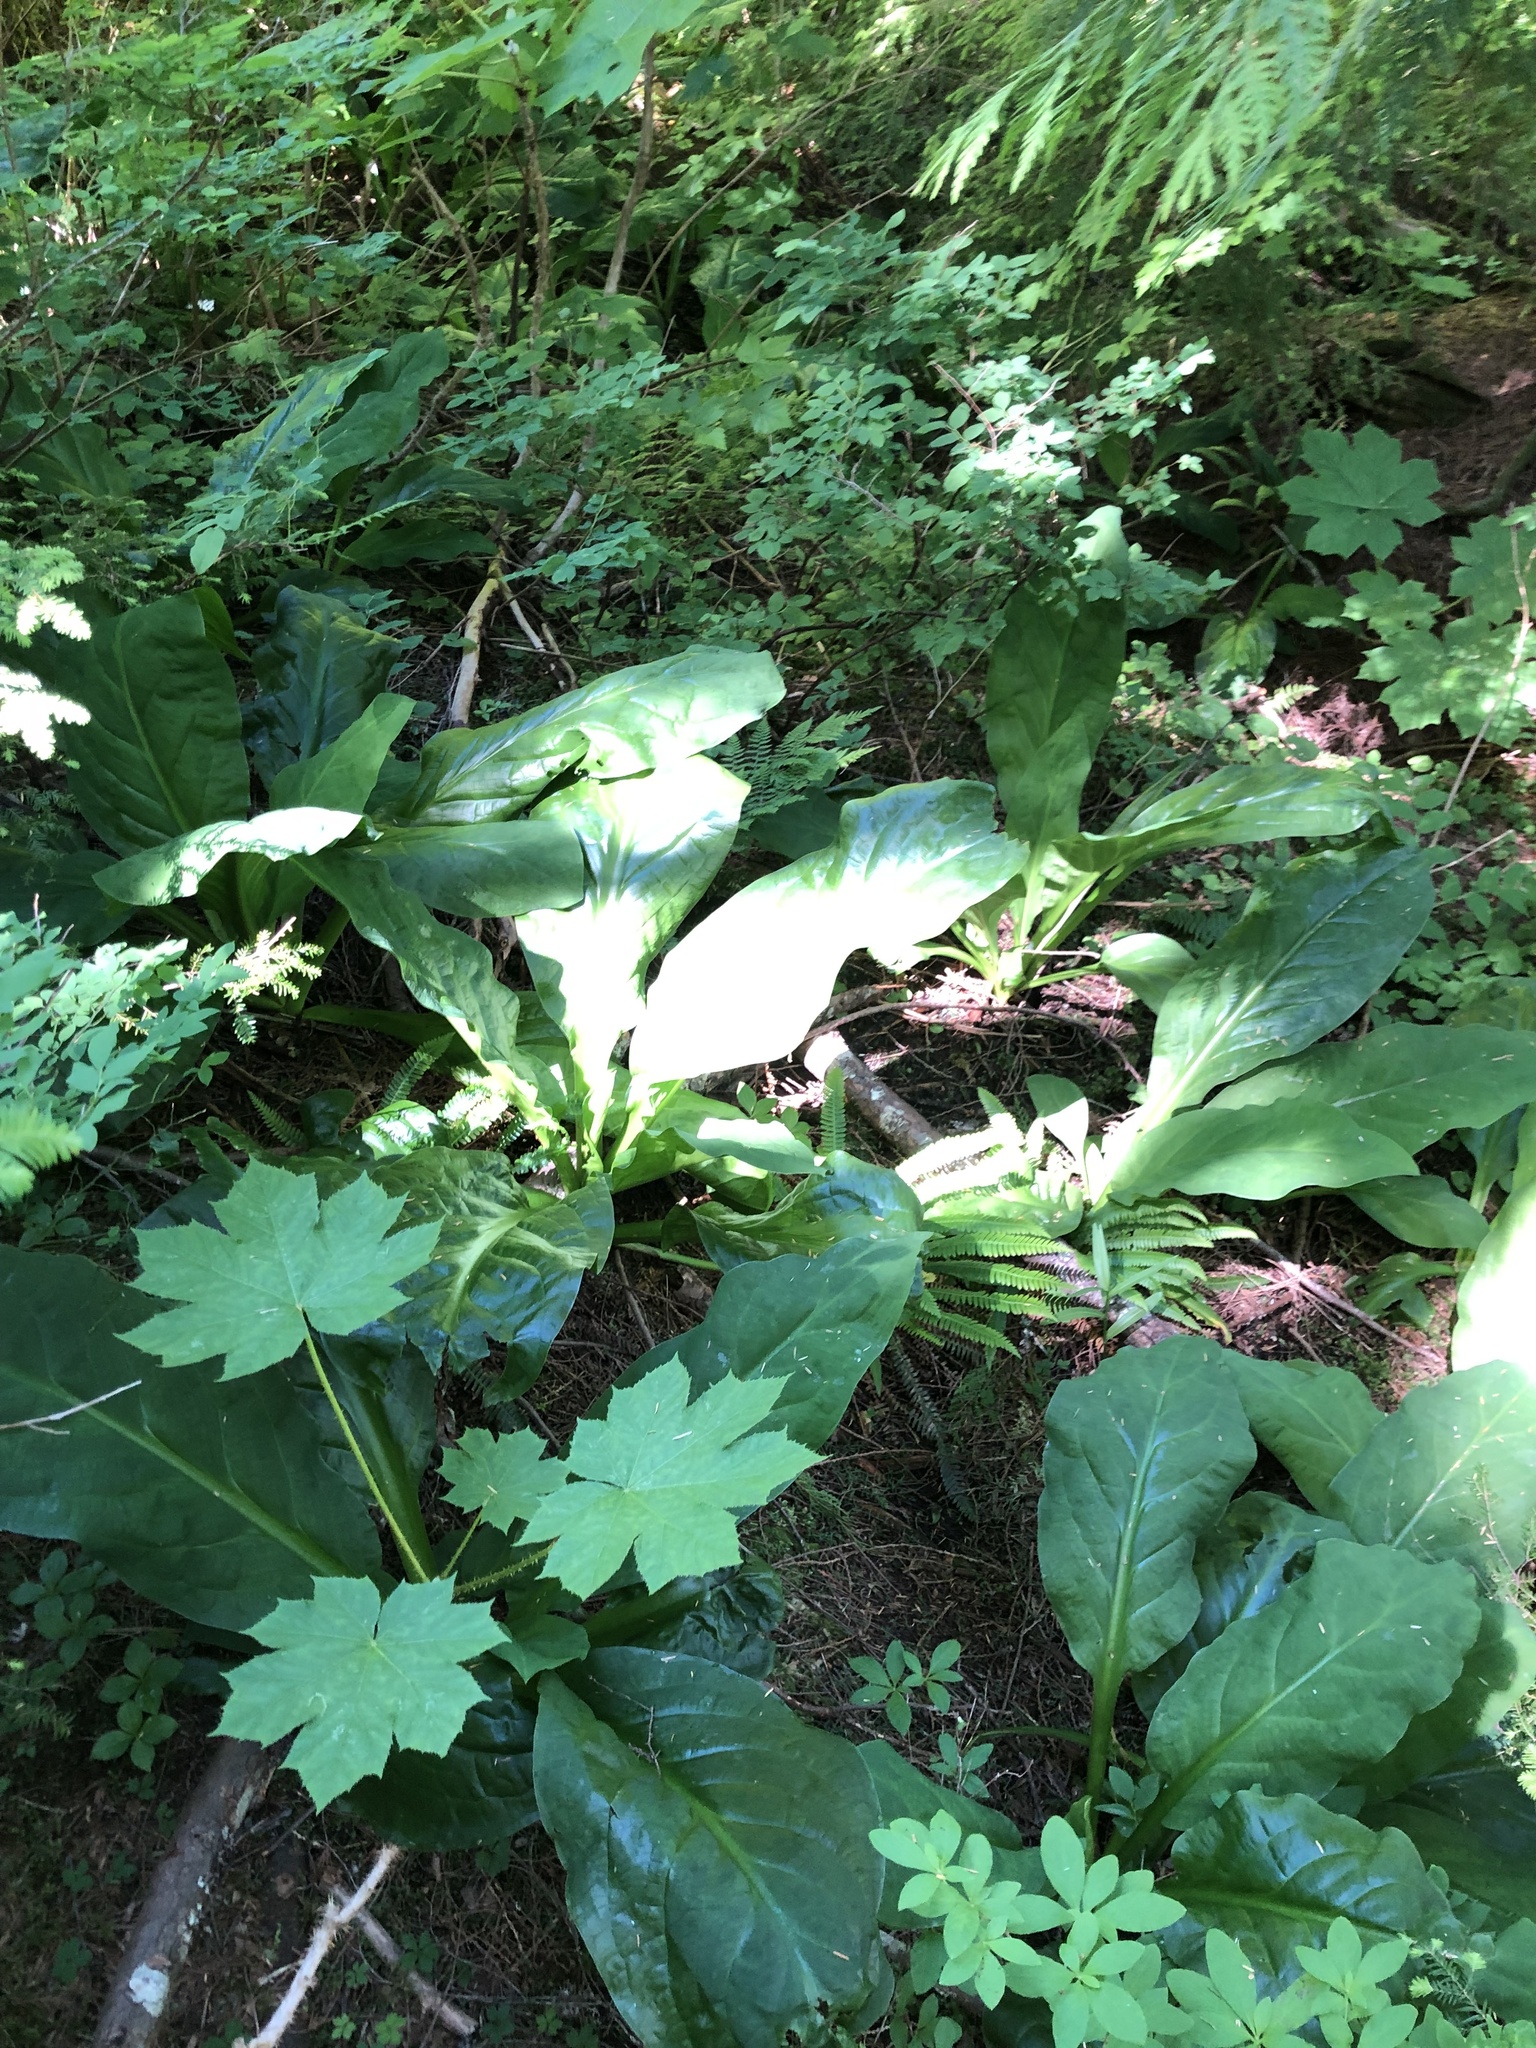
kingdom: Plantae
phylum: Tracheophyta
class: Liliopsida
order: Alismatales
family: Araceae
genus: Lysichiton
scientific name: Lysichiton americanus
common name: American skunk cabbage
